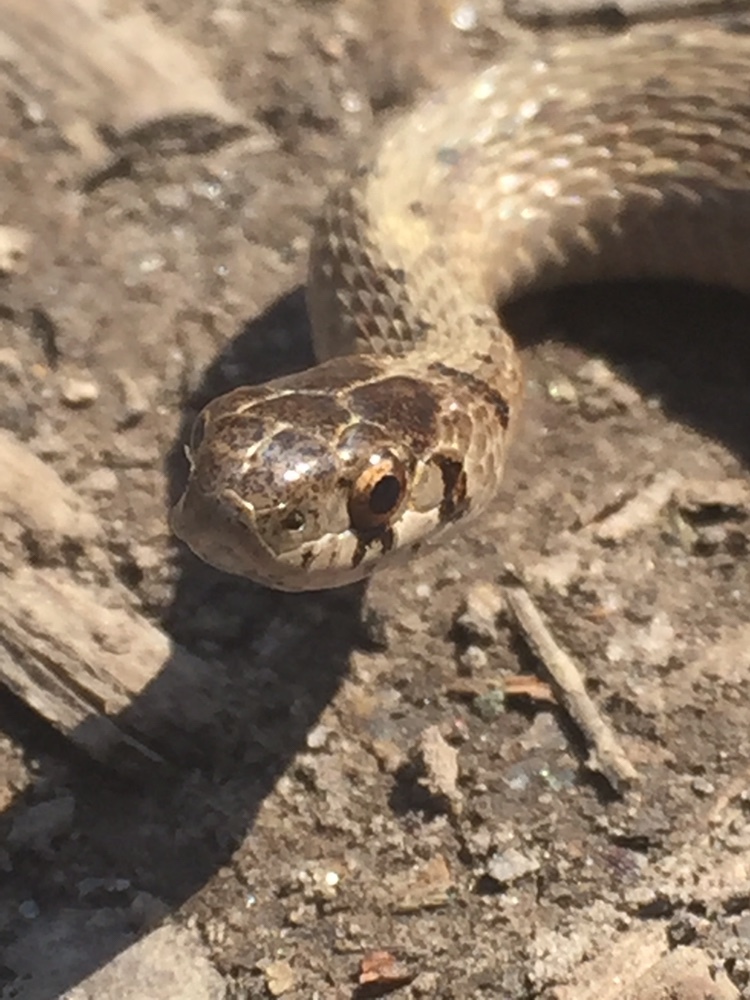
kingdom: Animalia
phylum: Chordata
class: Squamata
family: Colubridae
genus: Storeria
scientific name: Storeria dekayi
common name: (dekay’s) brown snake
